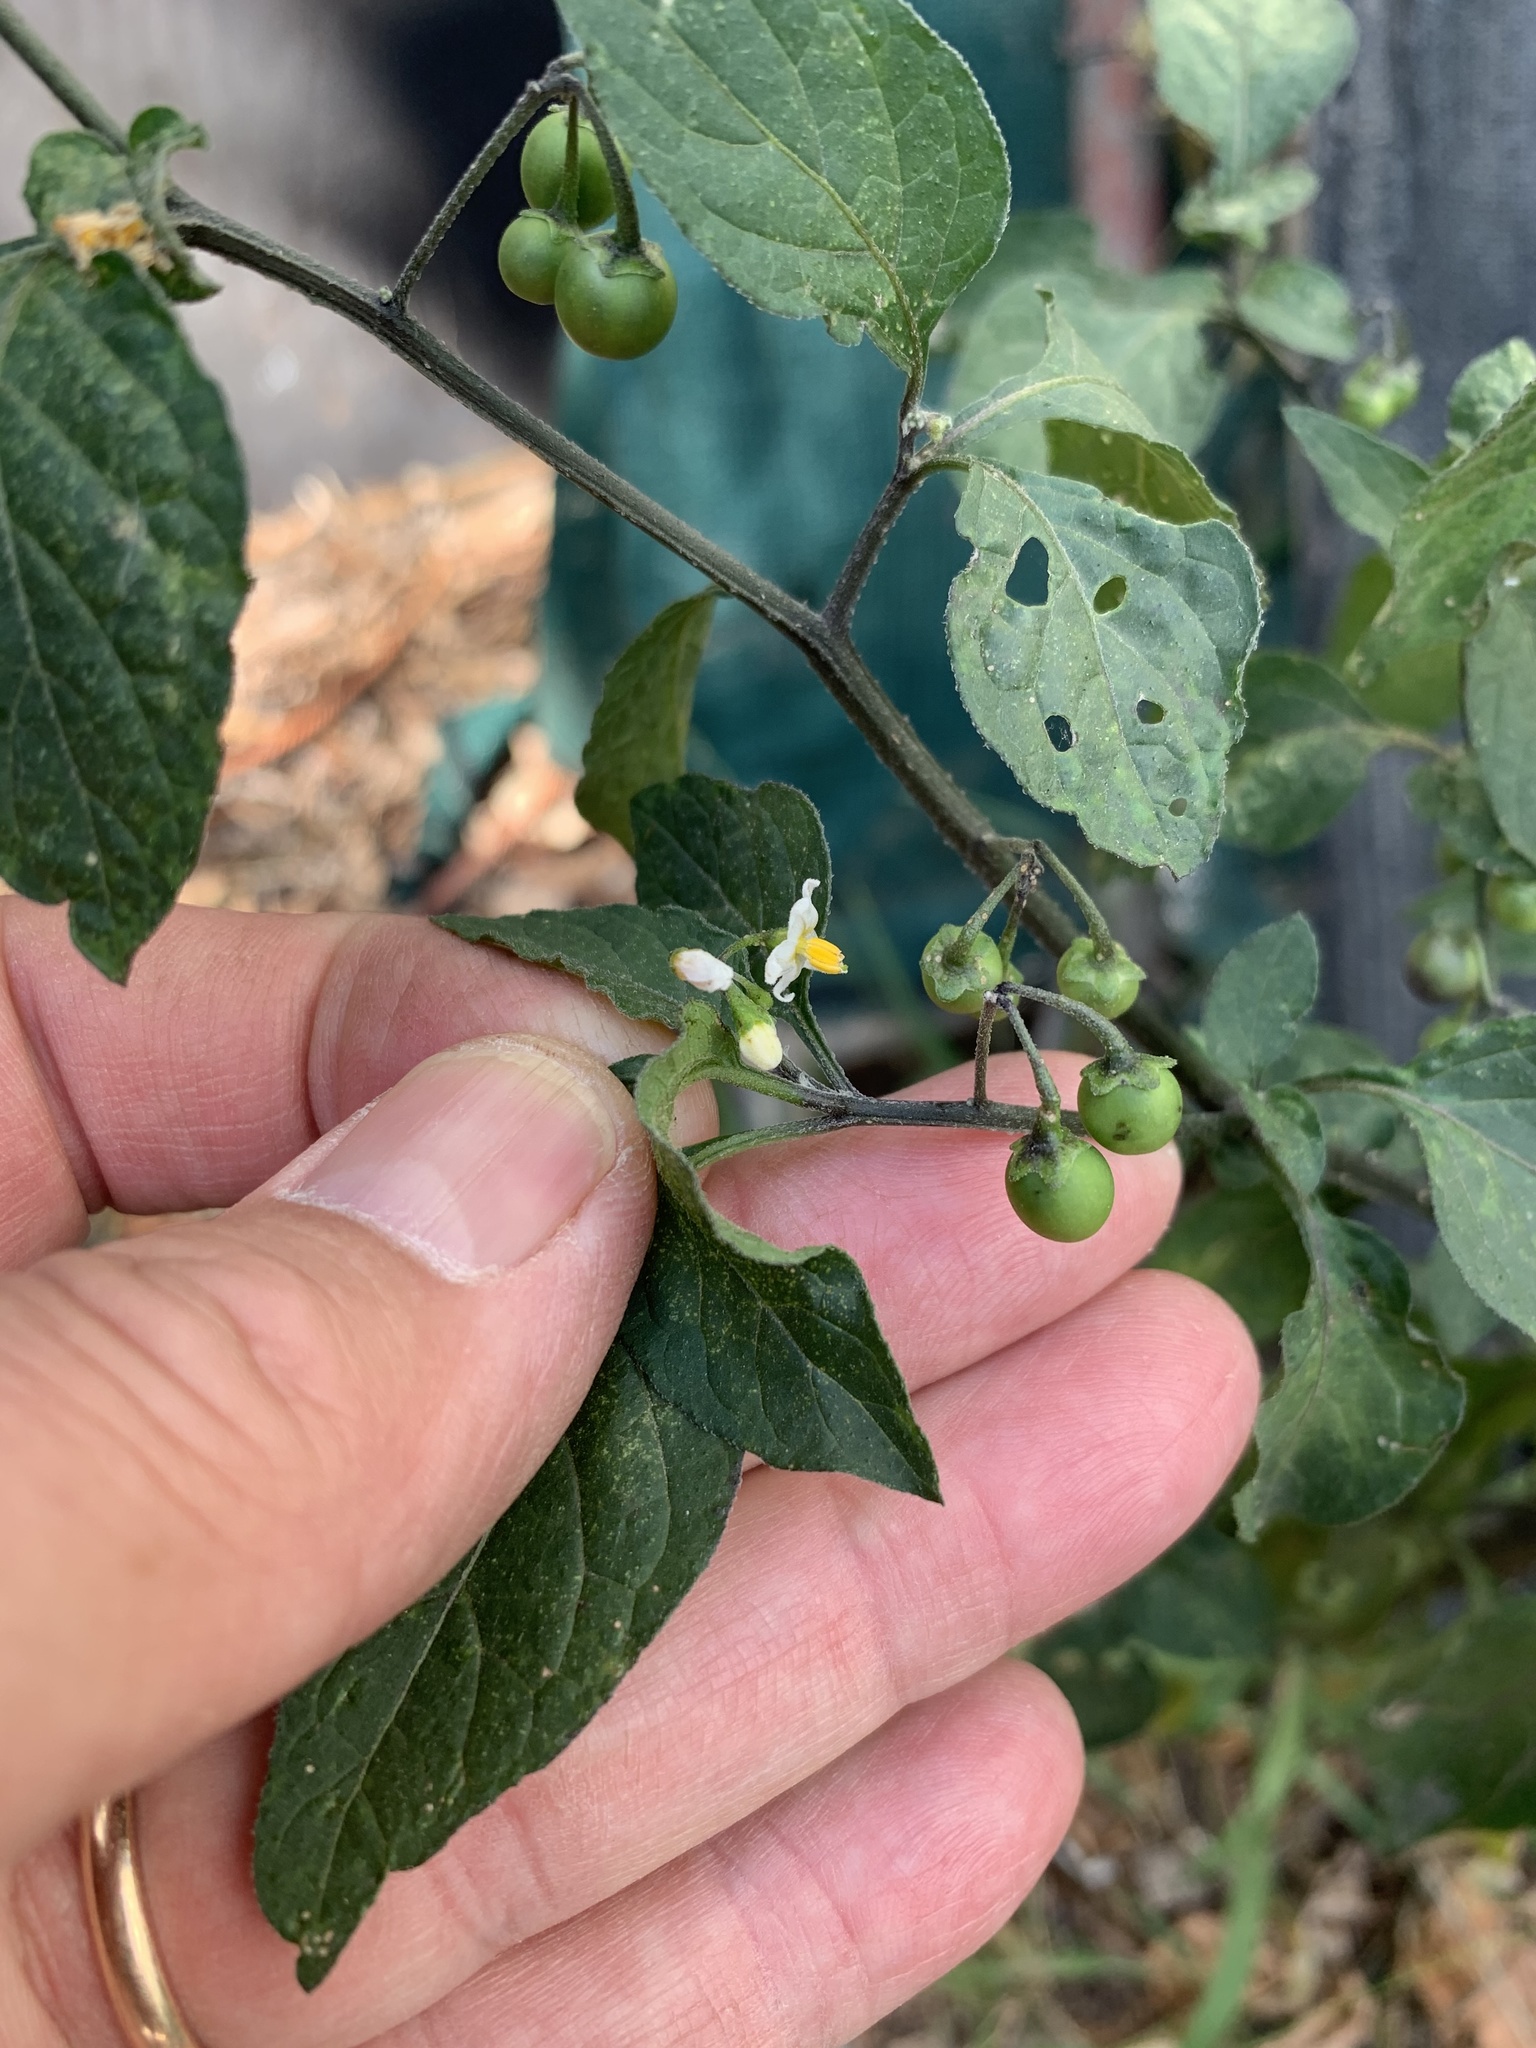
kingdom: Plantae
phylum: Tracheophyta
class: Magnoliopsida
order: Solanales
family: Solanaceae
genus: Solanum
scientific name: Solanum nigrum
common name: Black nightshade
